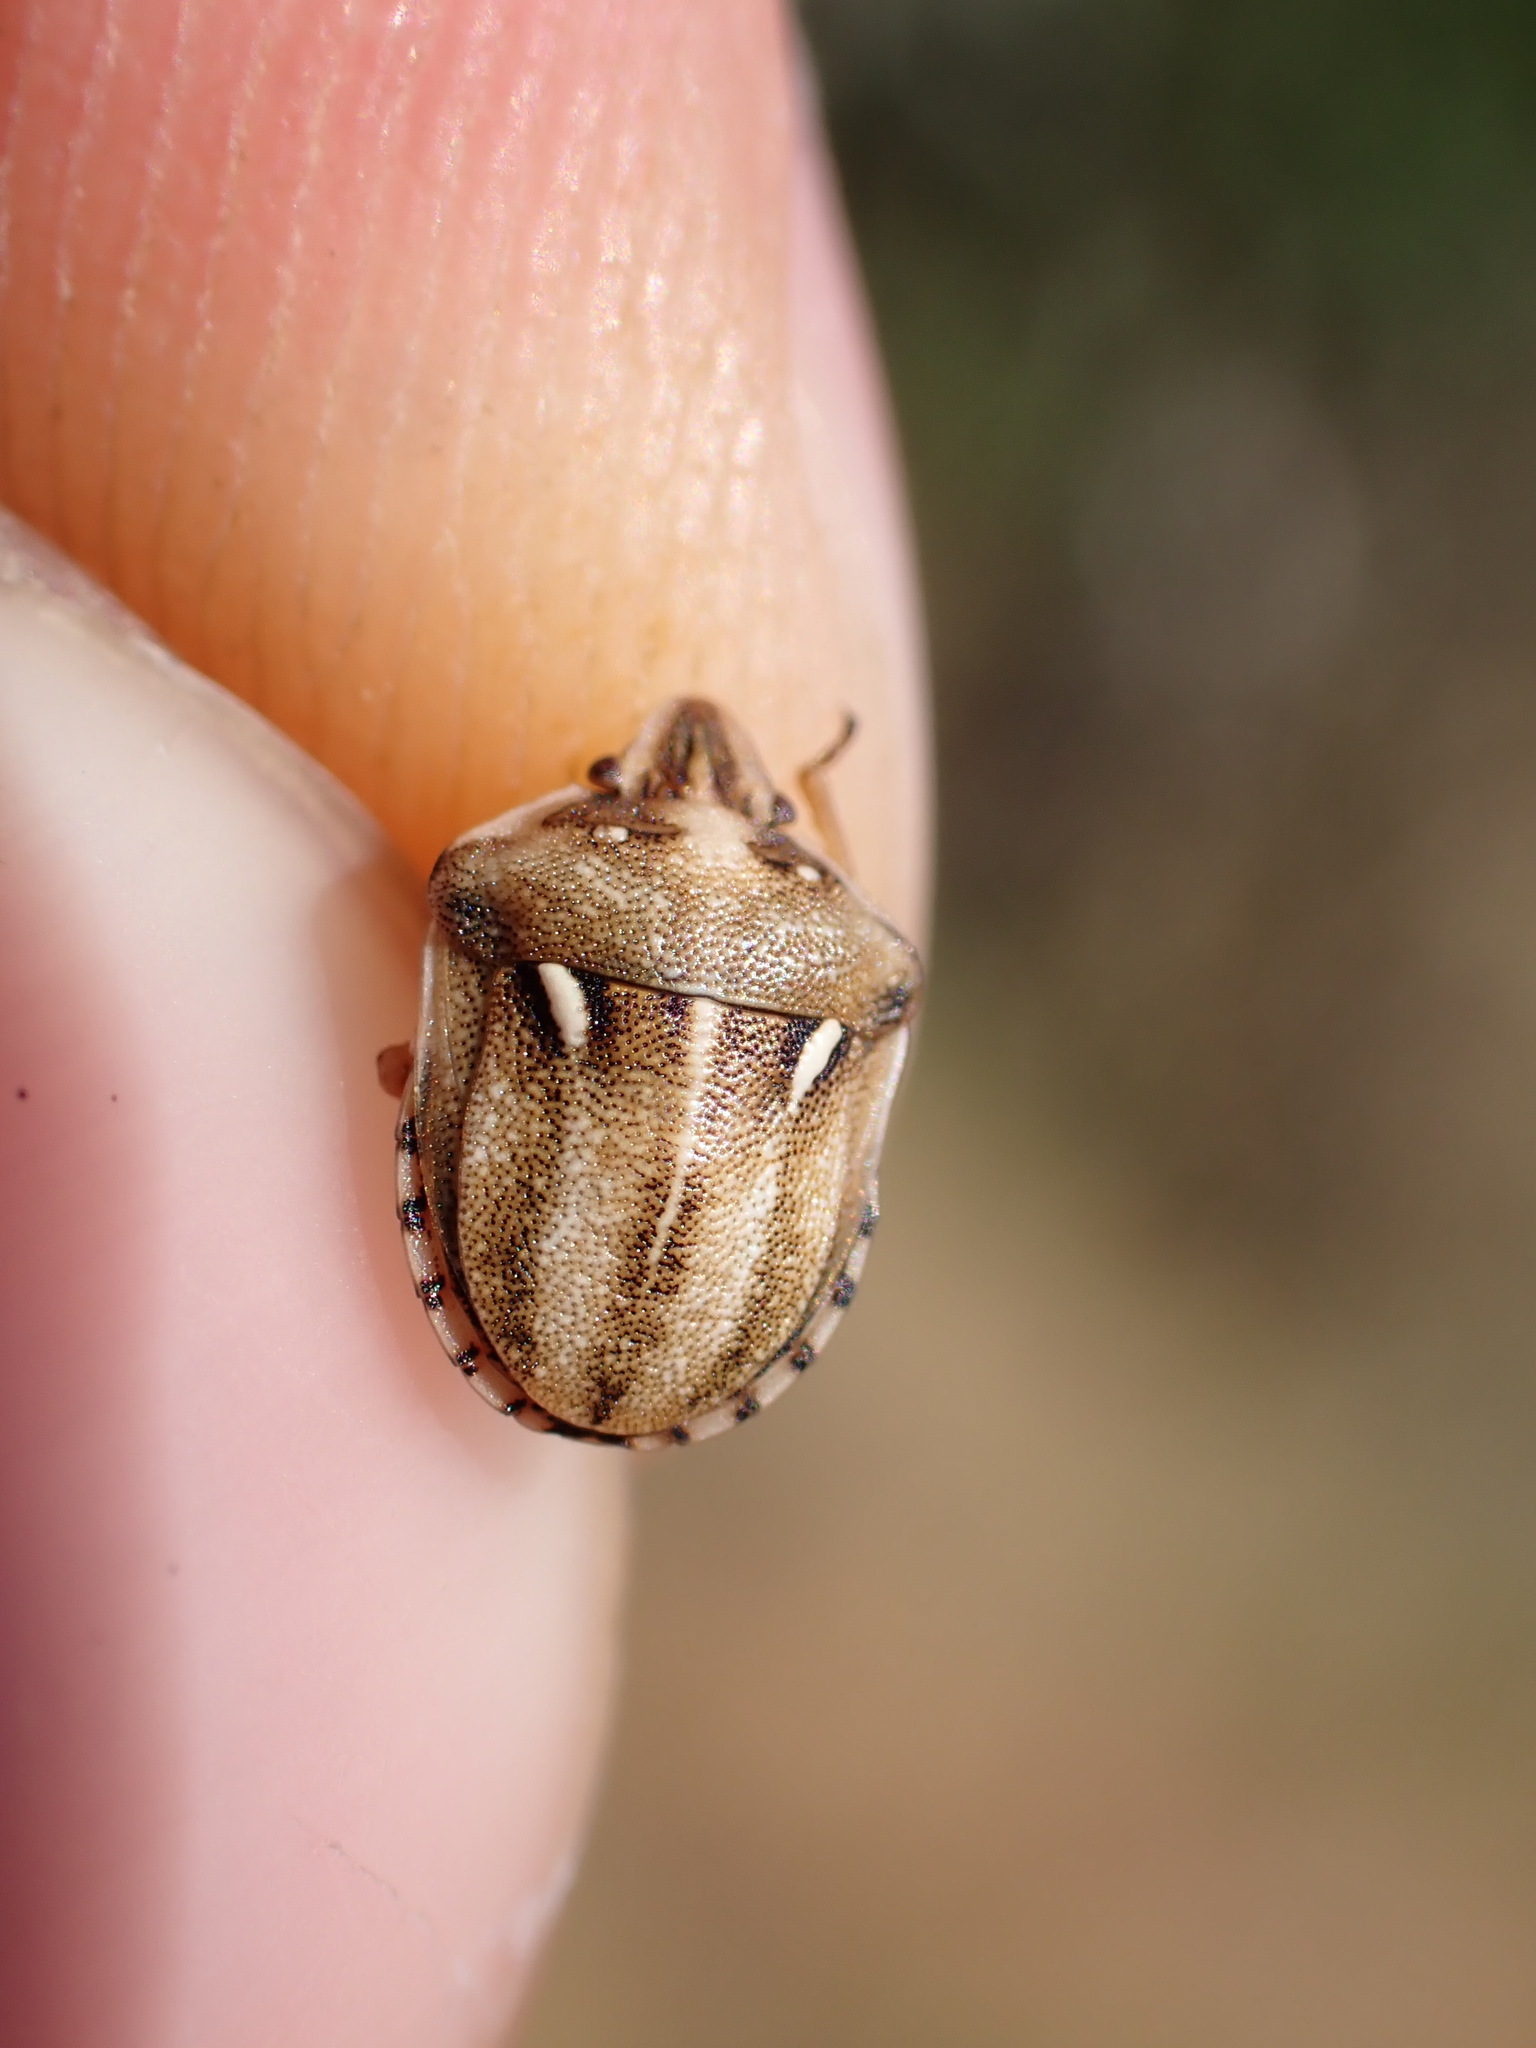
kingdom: Animalia
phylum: Arthropoda
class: Insecta
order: Hemiptera
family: Pentatomidae
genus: Derula
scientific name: Derula flavoguttata
